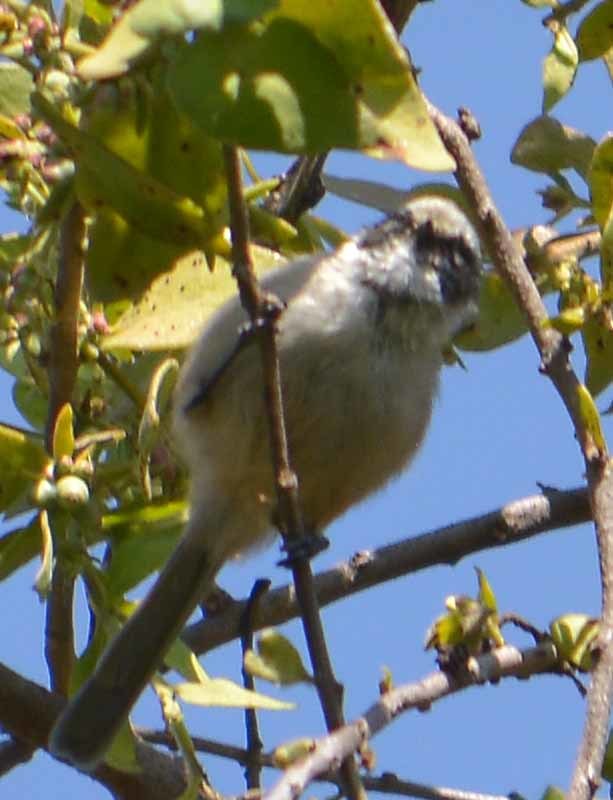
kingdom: Animalia
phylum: Chordata
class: Aves
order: Passeriformes
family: Aegithalidae
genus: Psaltriparus
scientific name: Psaltriparus minimus
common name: American bushtit
